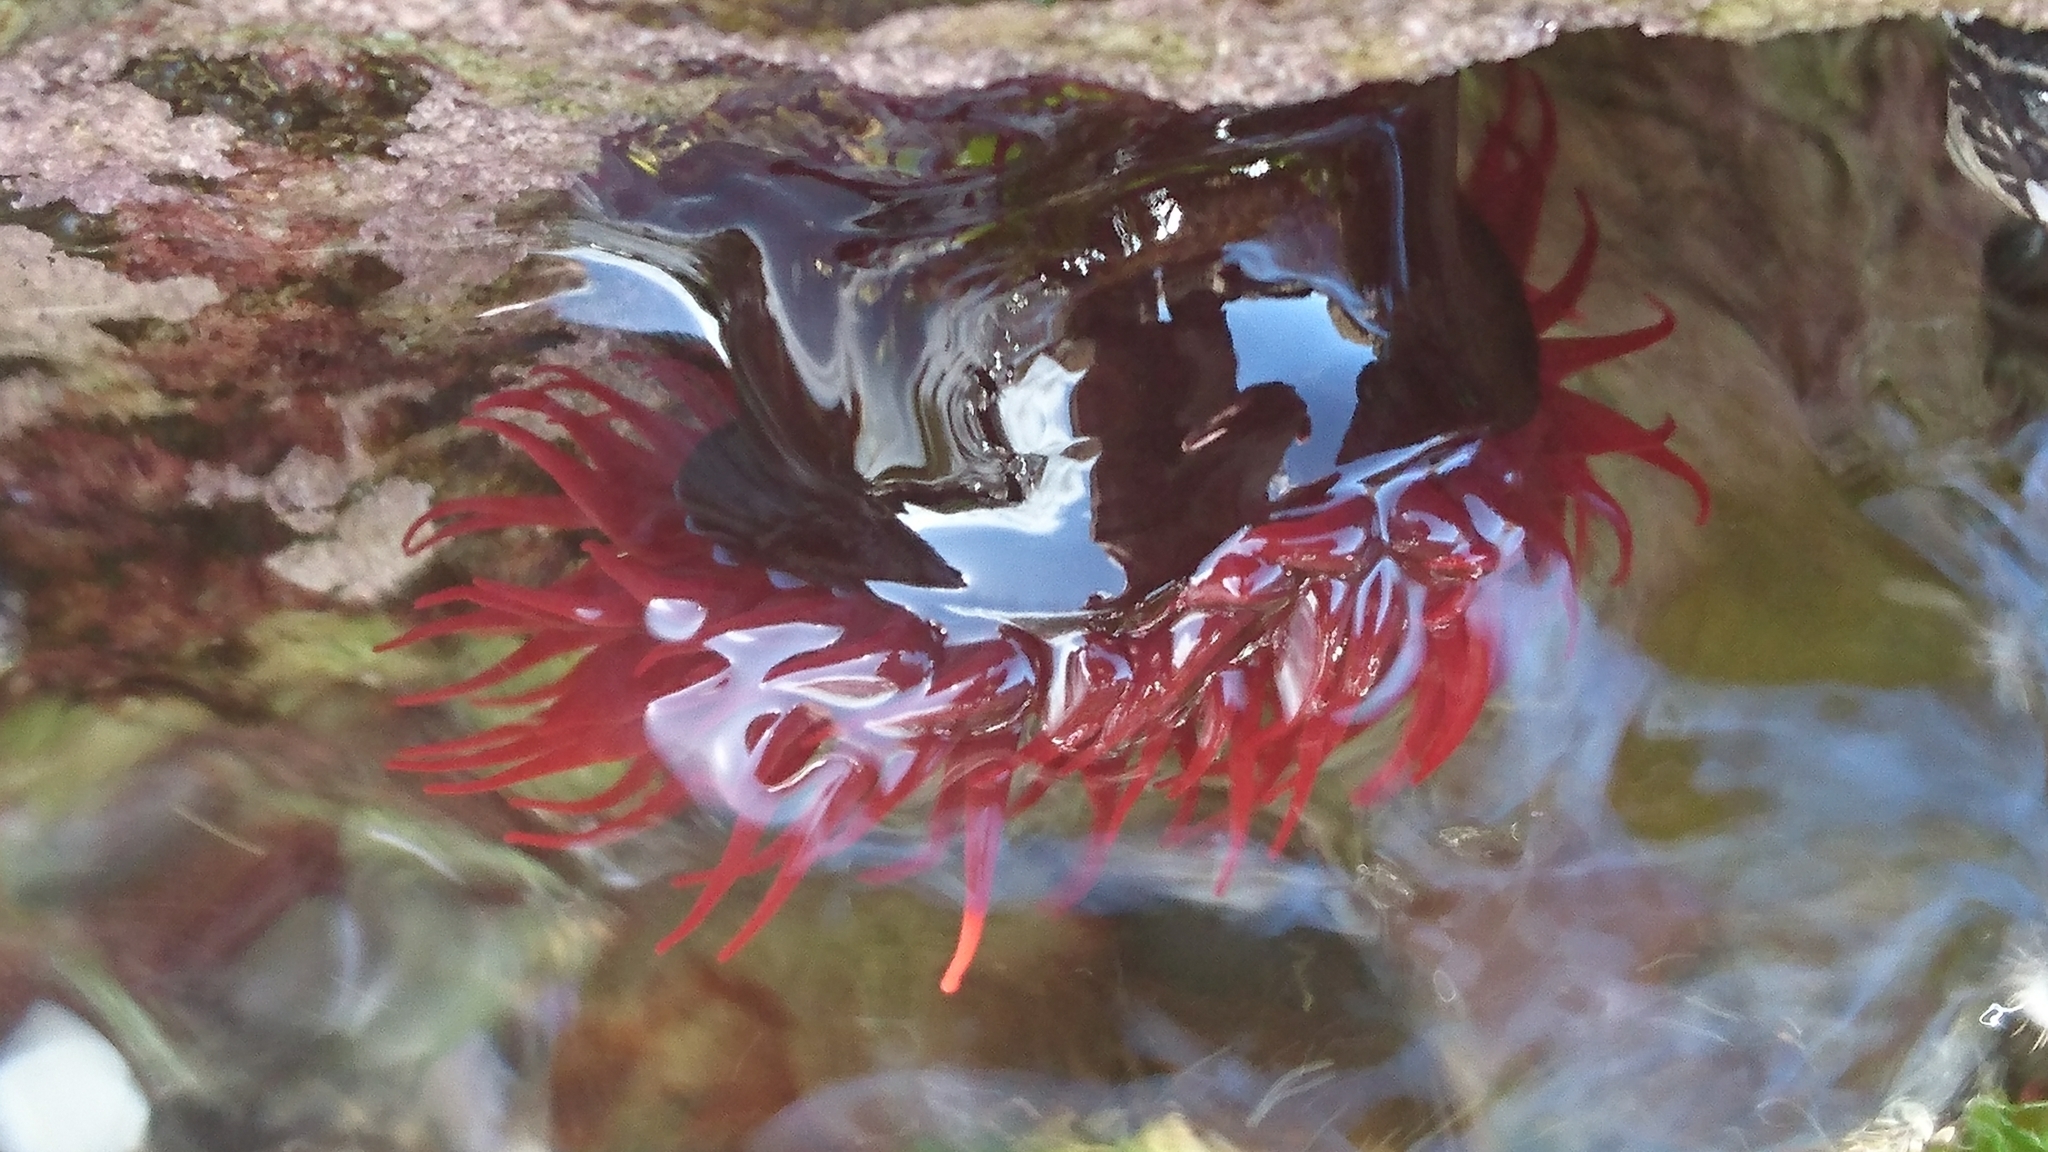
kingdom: Animalia
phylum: Cnidaria
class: Anthozoa
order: Actiniaria
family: Actiniidae
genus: Actinia
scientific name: Actinia tenebrosa
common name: Waratah anemone
